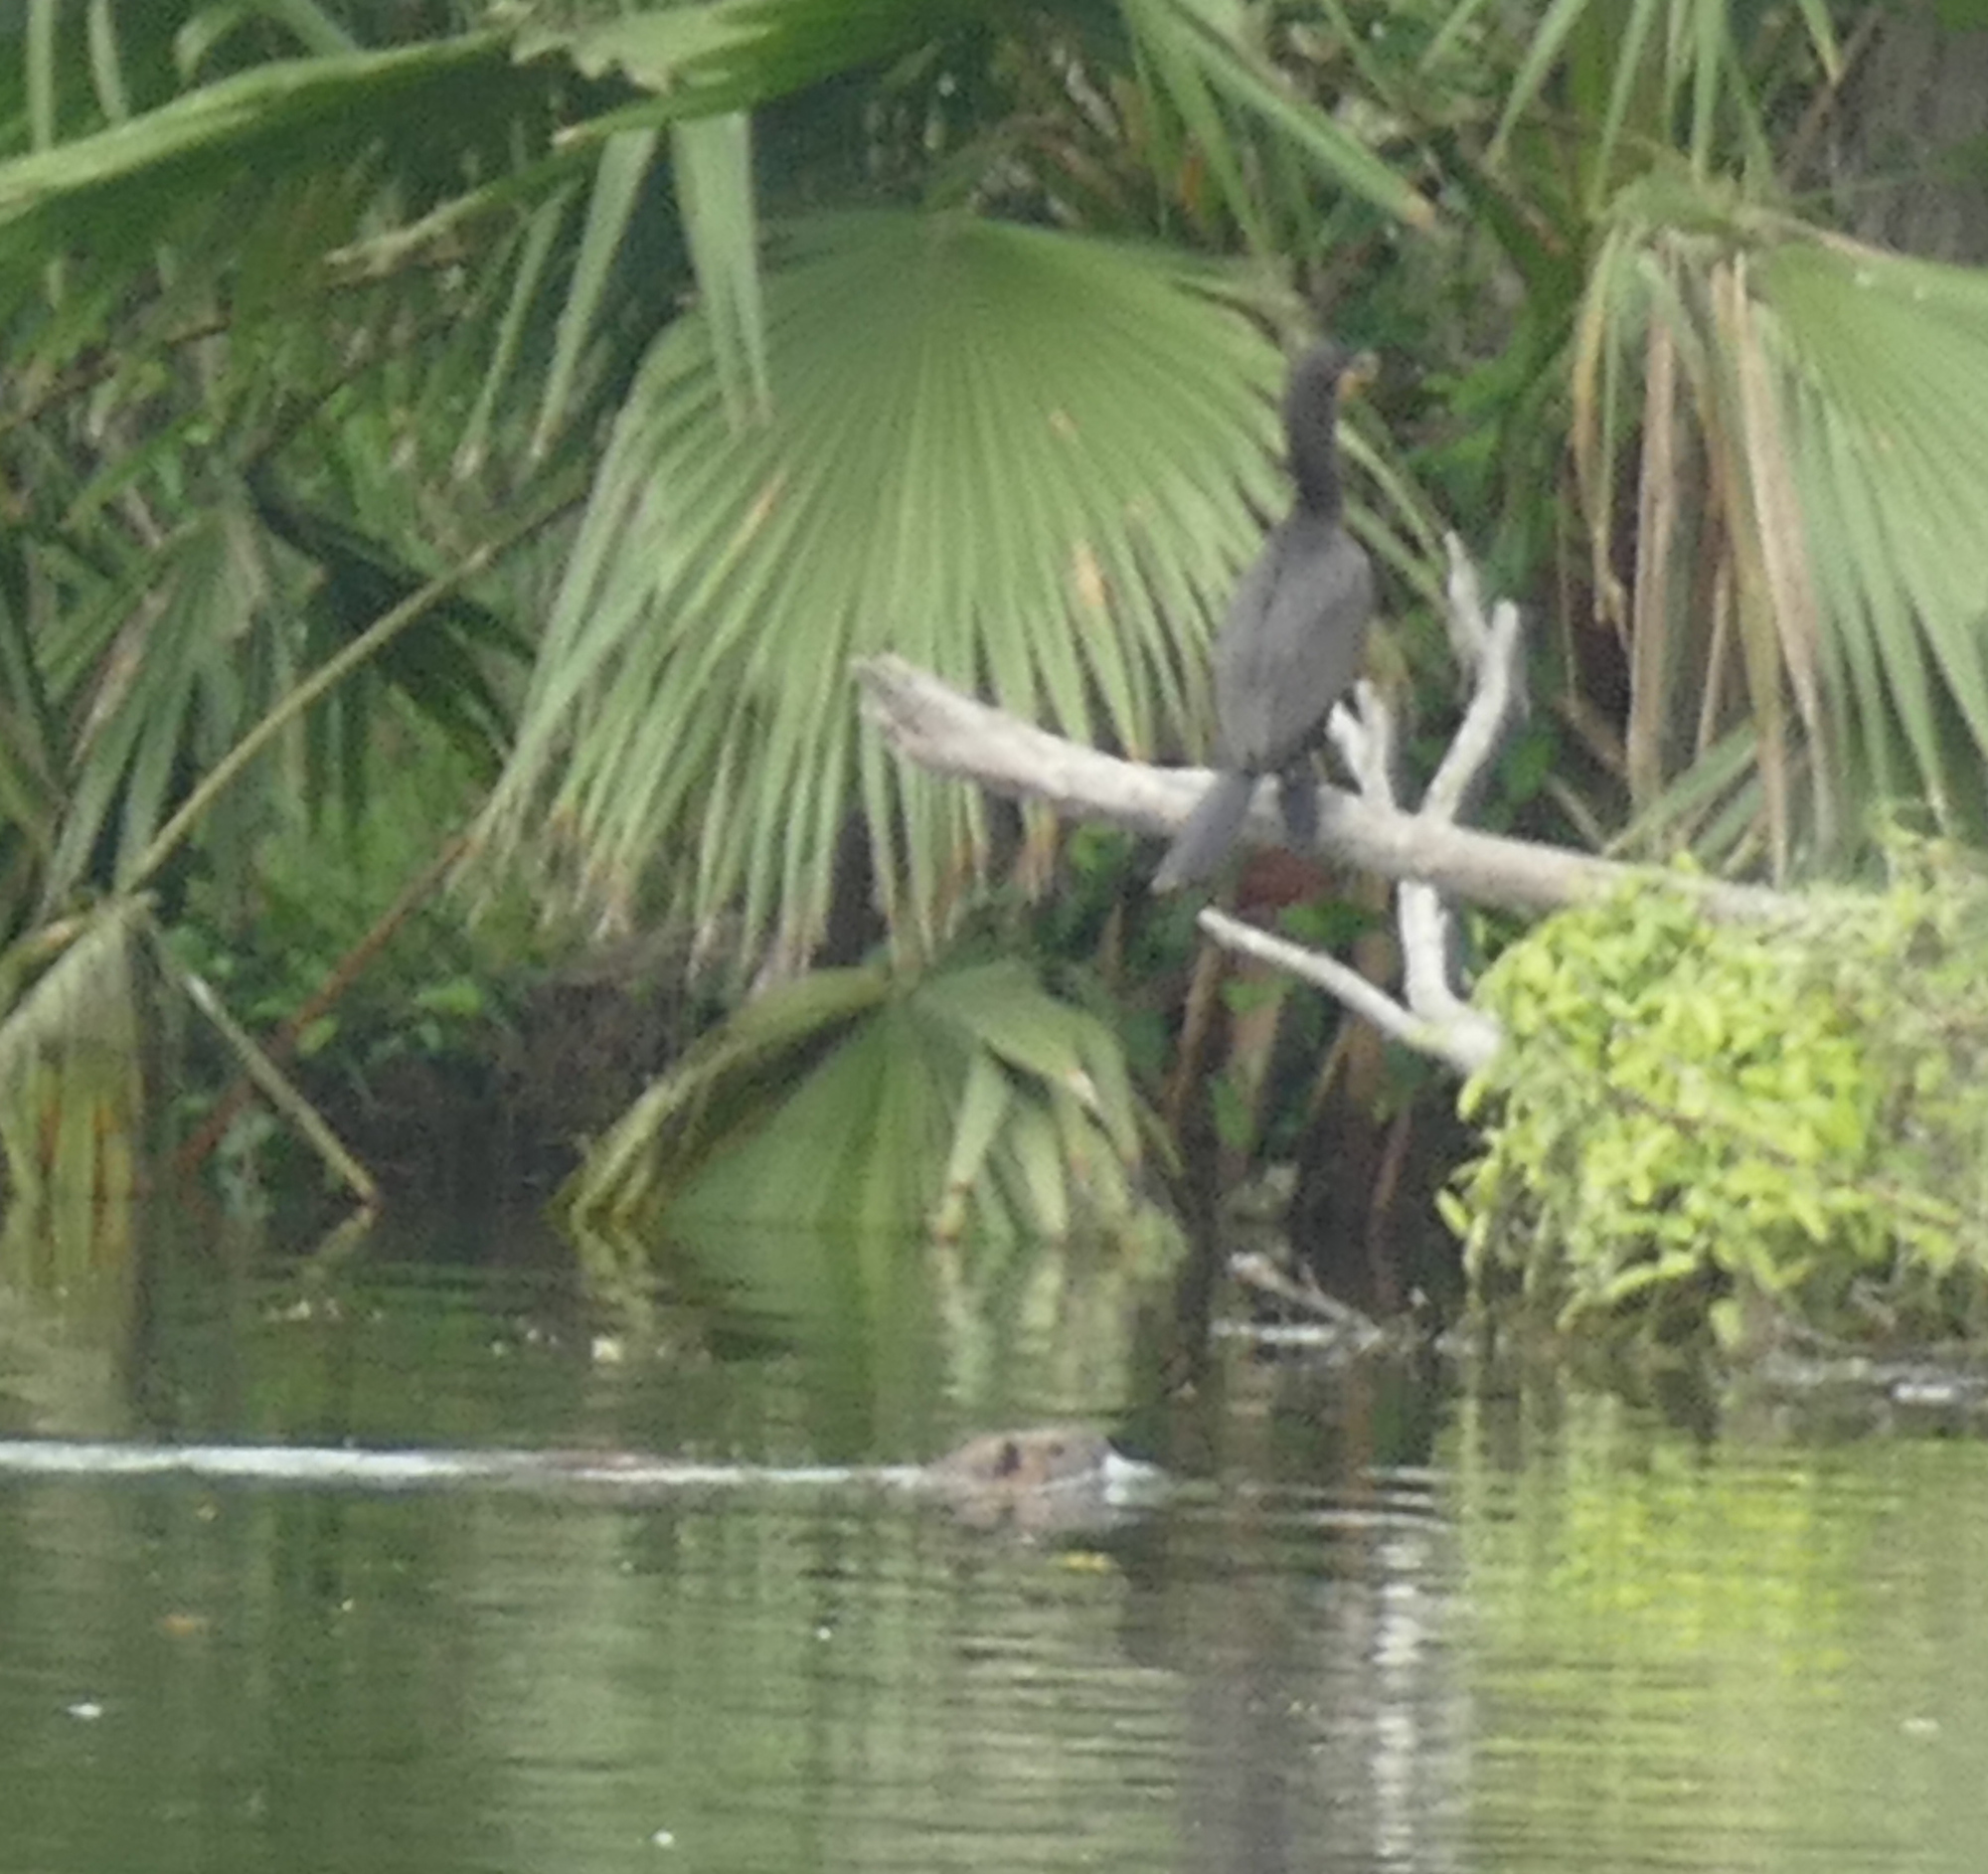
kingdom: Animalia
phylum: Chordata
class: Mammalia
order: Rodentia
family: Myocastoridae
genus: Myocastor
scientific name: Myocastor coypus
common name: Coypu
